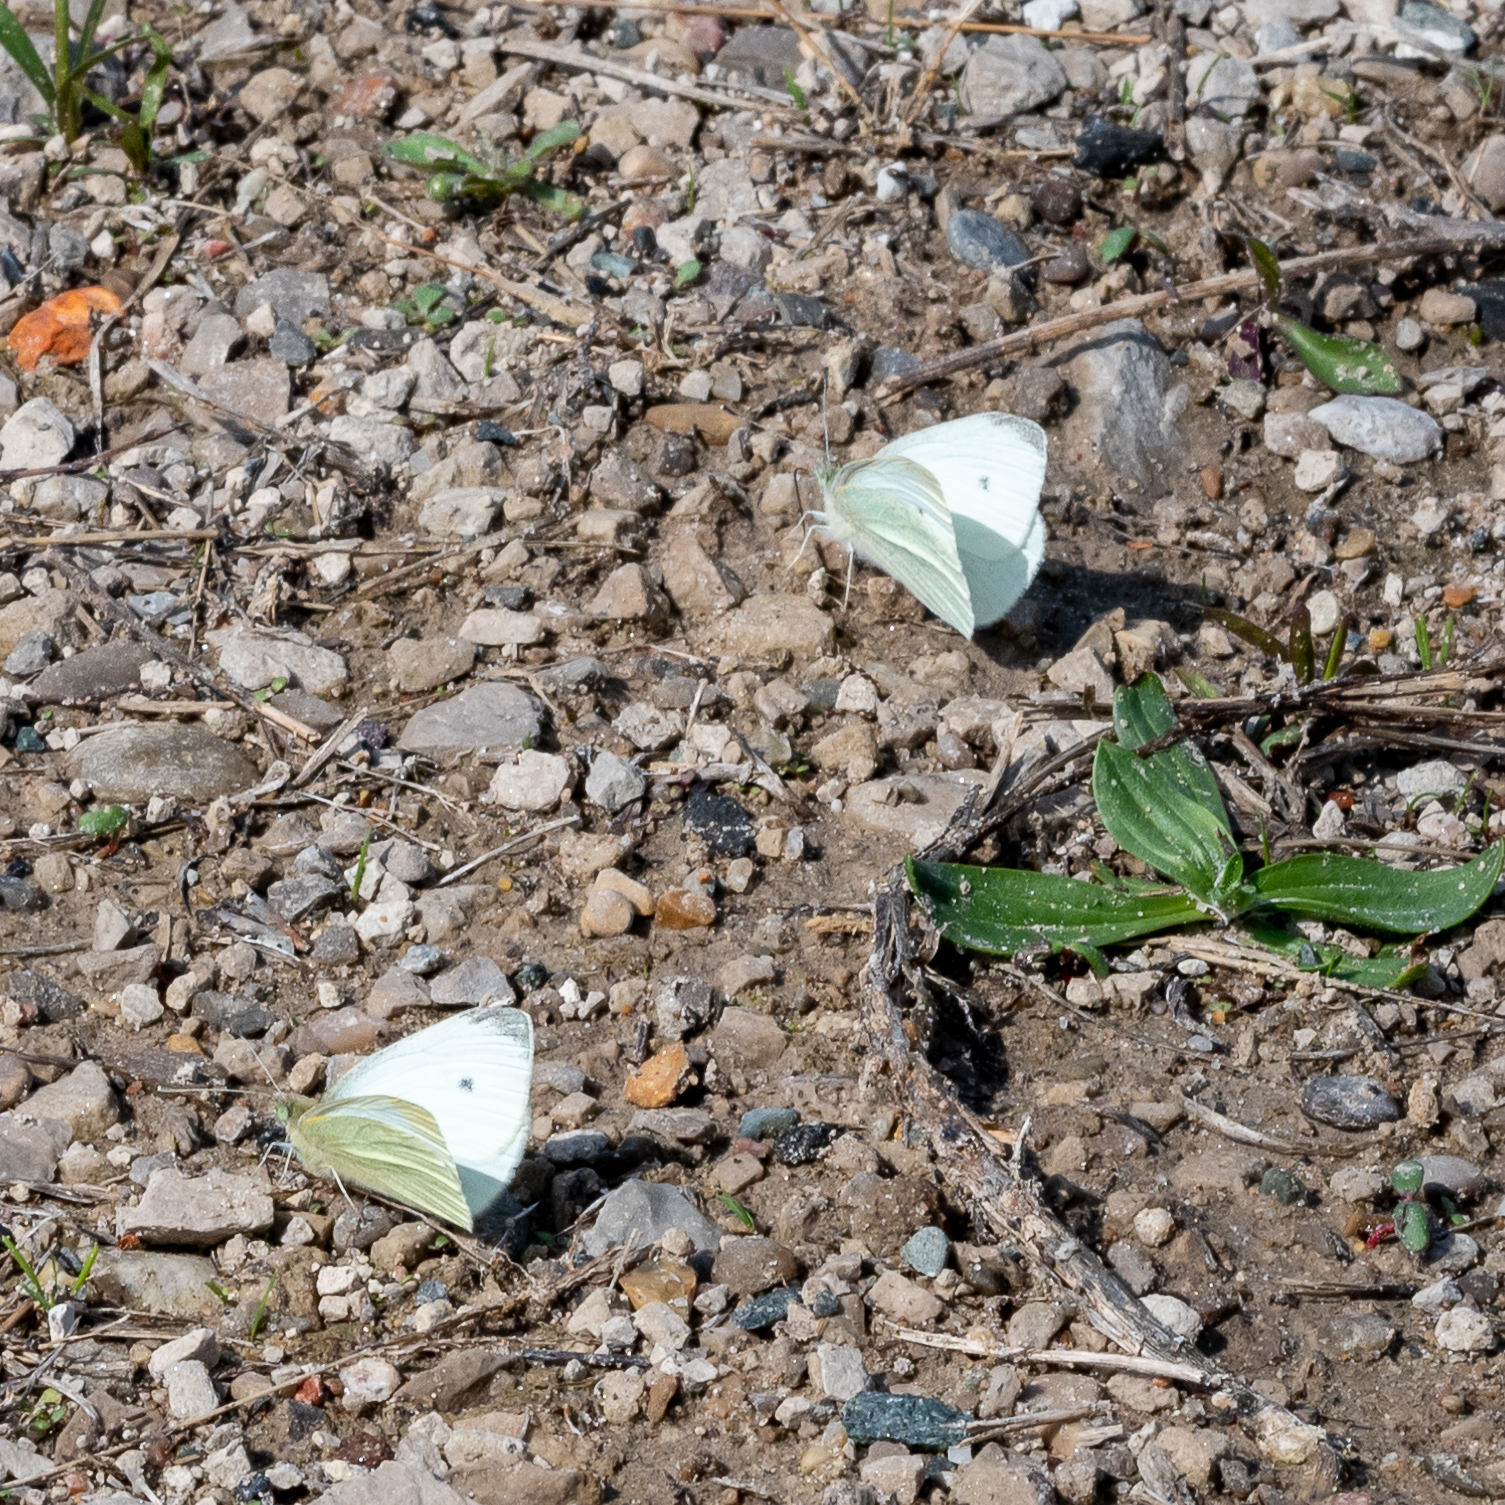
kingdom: Animalia
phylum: Arthropoda
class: Insecta
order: Lepidoptera
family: Pieridae
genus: Pieris
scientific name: Pieris rapae
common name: Small white
